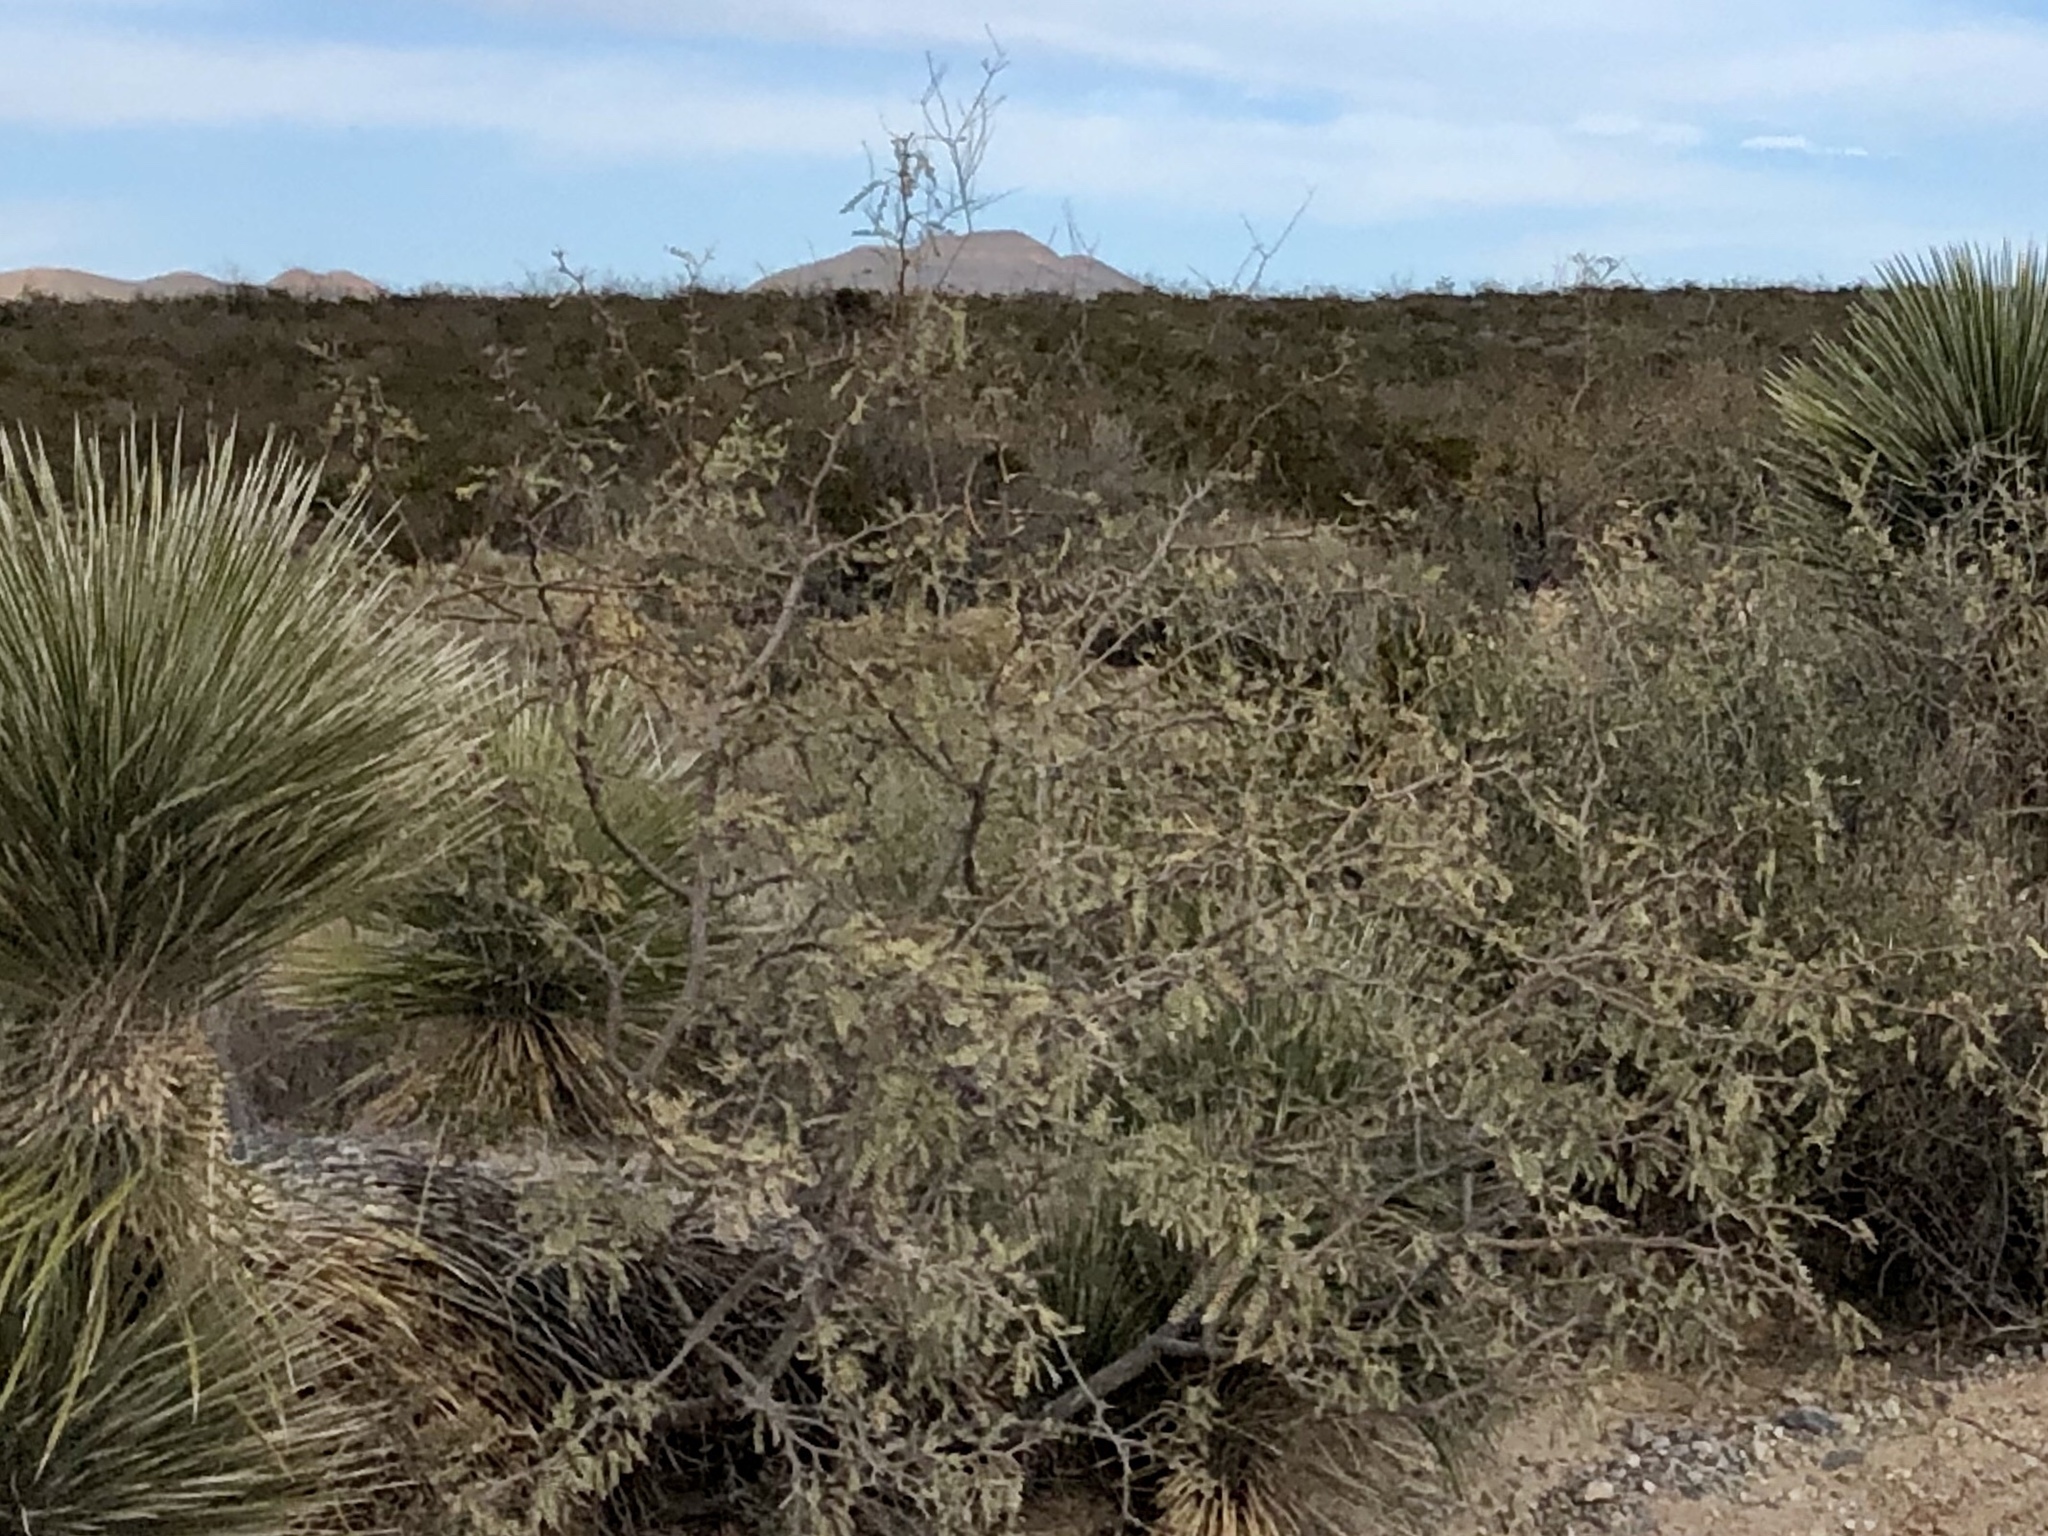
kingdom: Plantae
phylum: Tracheophyta
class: Magnoliopsida
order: Fabales
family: Fabaceae
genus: Prosopis
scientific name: Prosopis glandulosa
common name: Honey mesquite
